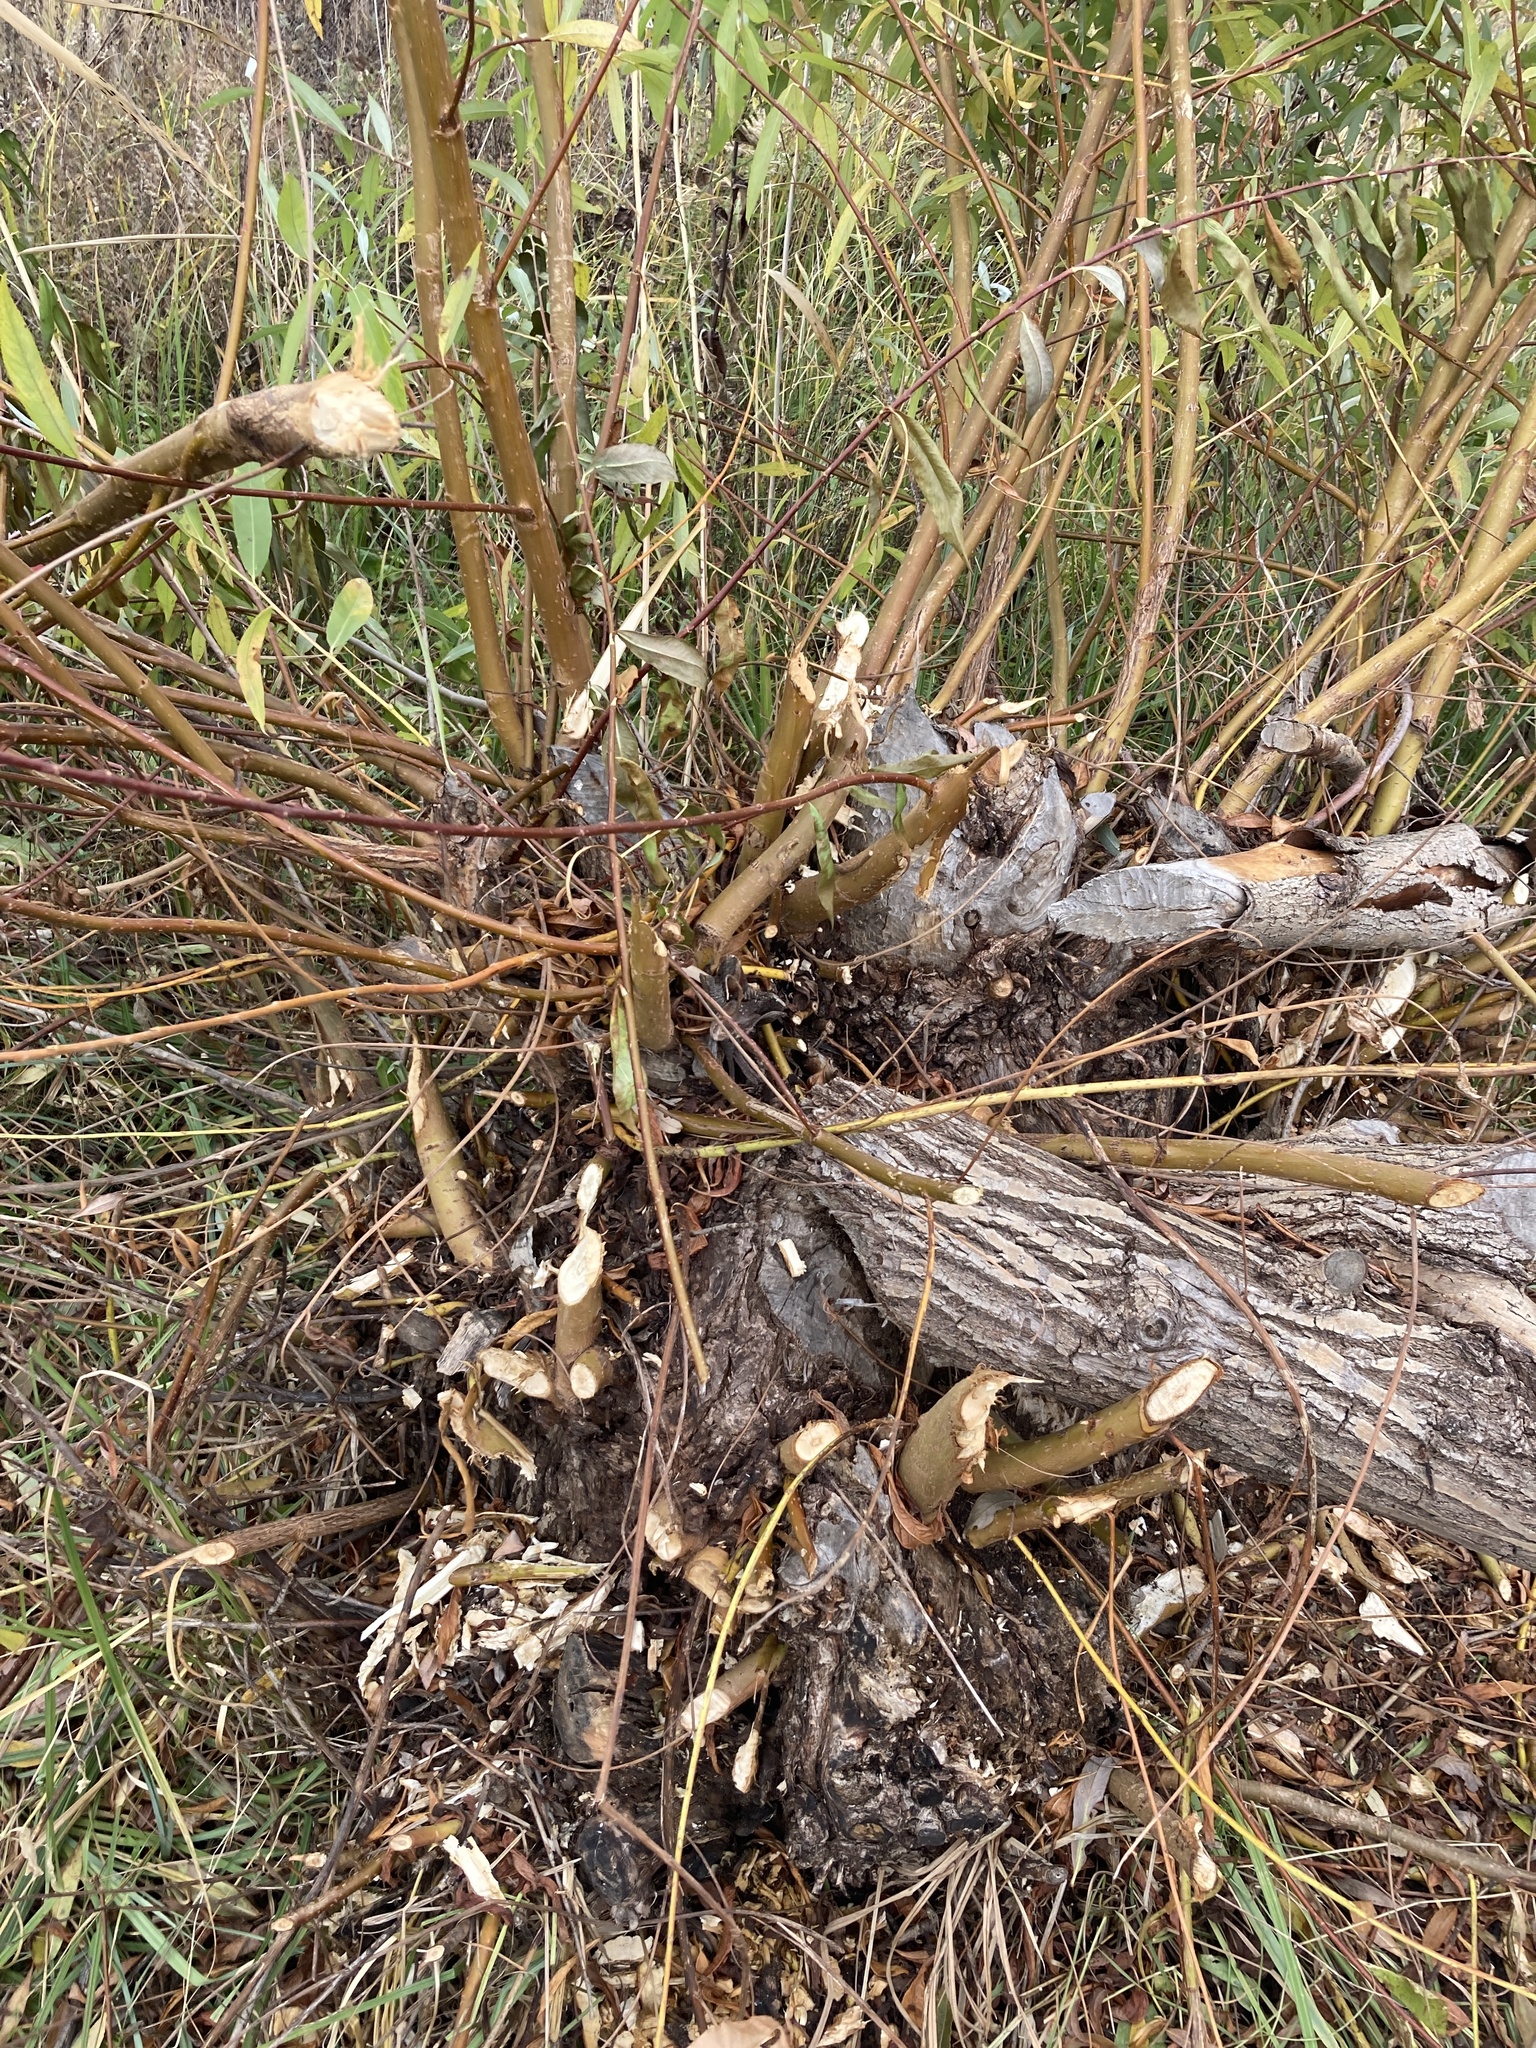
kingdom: Animalia
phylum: Chordata
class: Mammalia
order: Rodentia
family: Castoridae
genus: Castor
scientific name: Castor fiber
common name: Eurasian beaver
